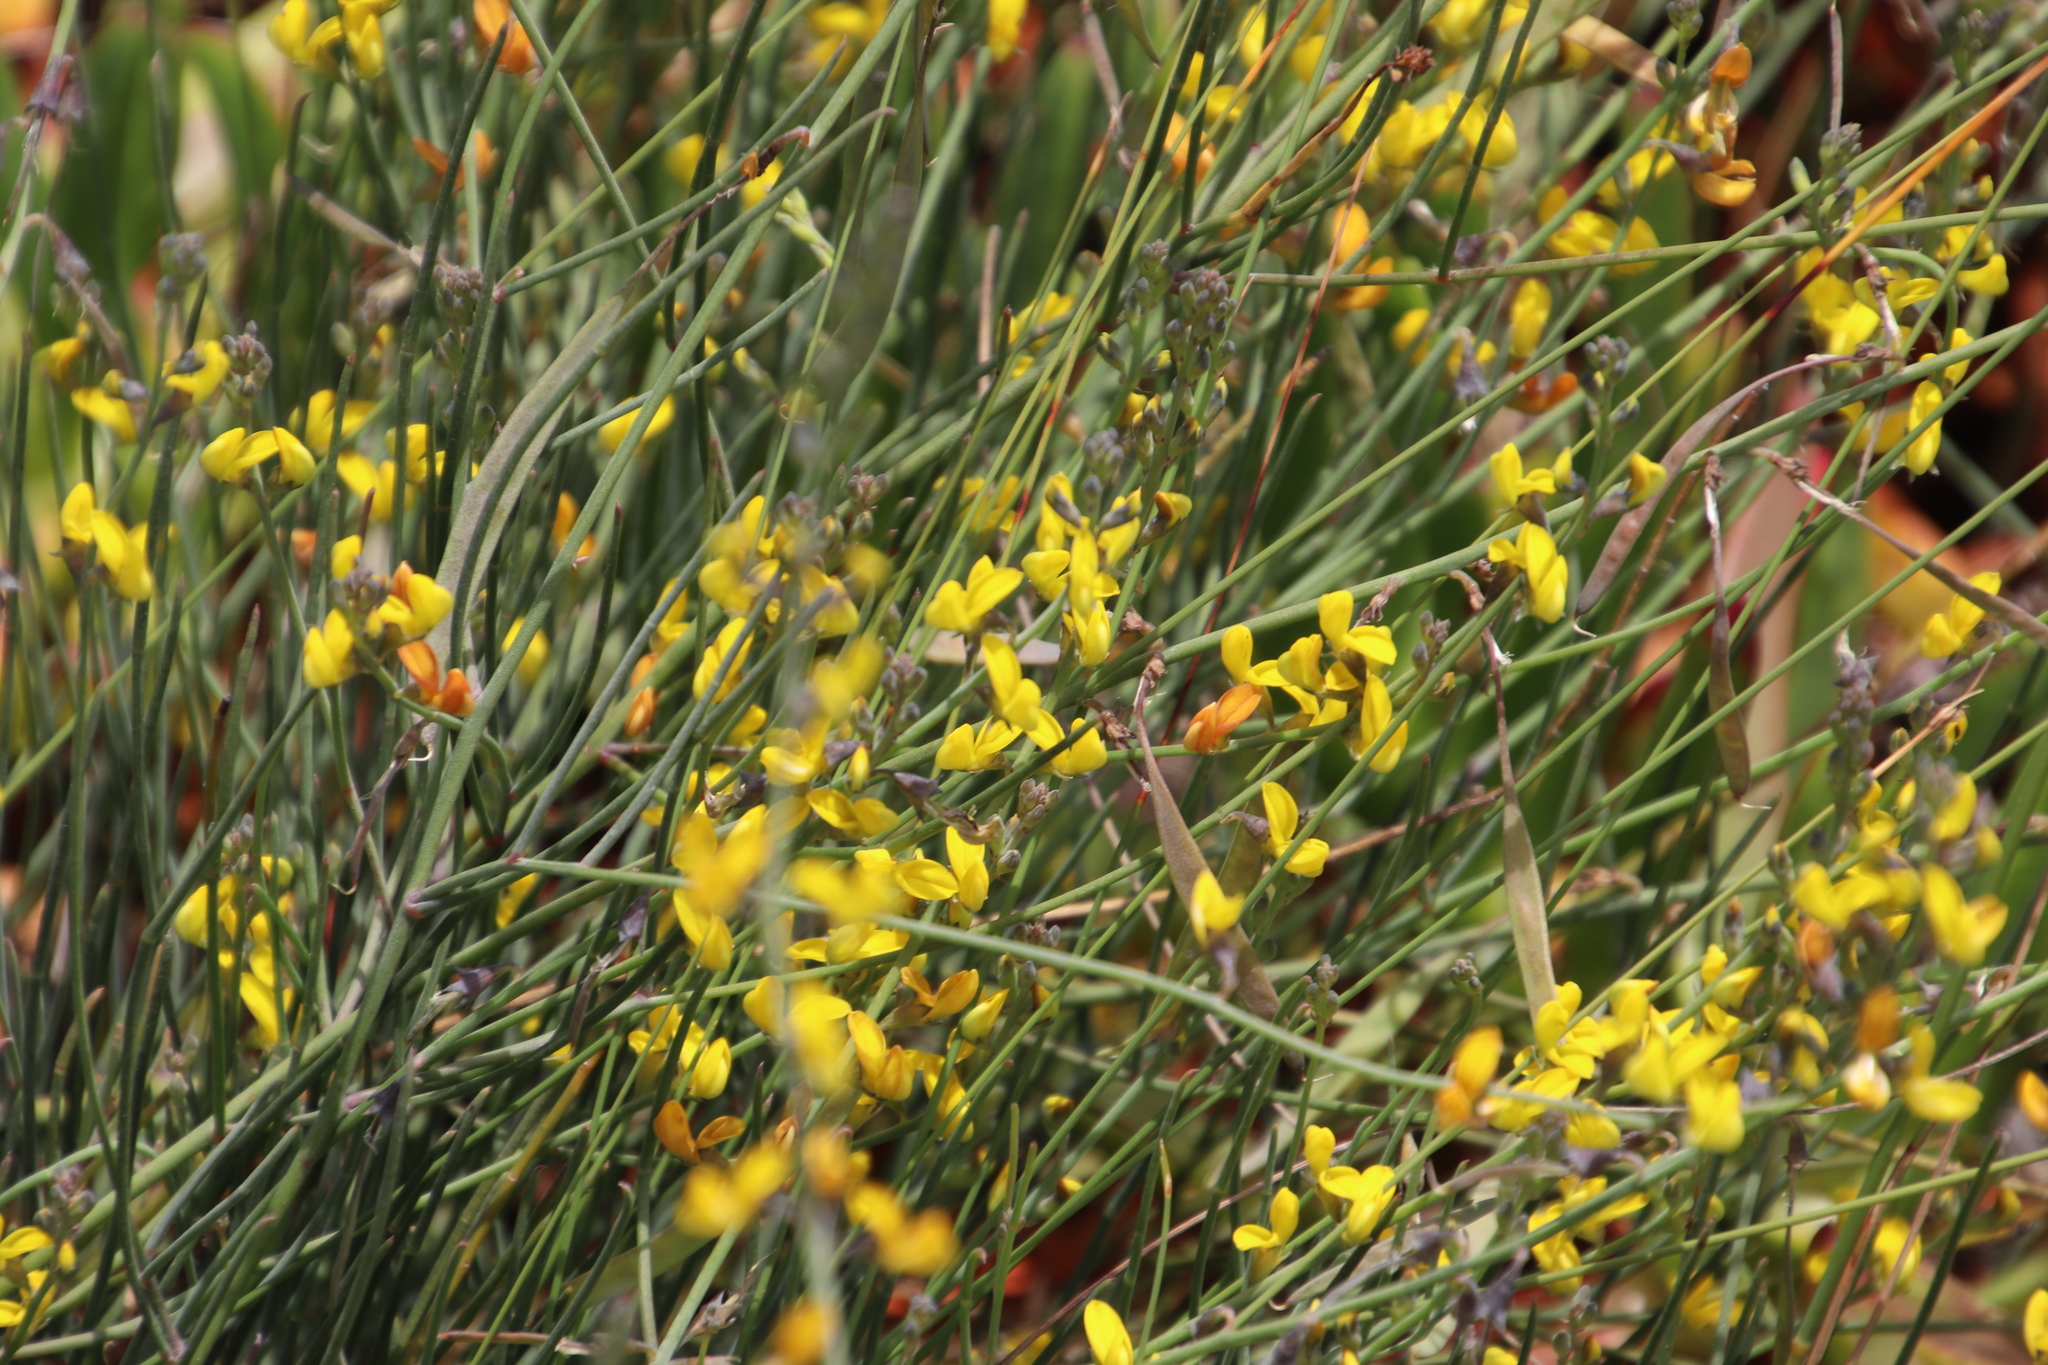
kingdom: Plantae
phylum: Tracheophyta
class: Magnoliopsida
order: Fabales
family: Fabaceae
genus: Lebeckia
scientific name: Lebeckia contaminata
